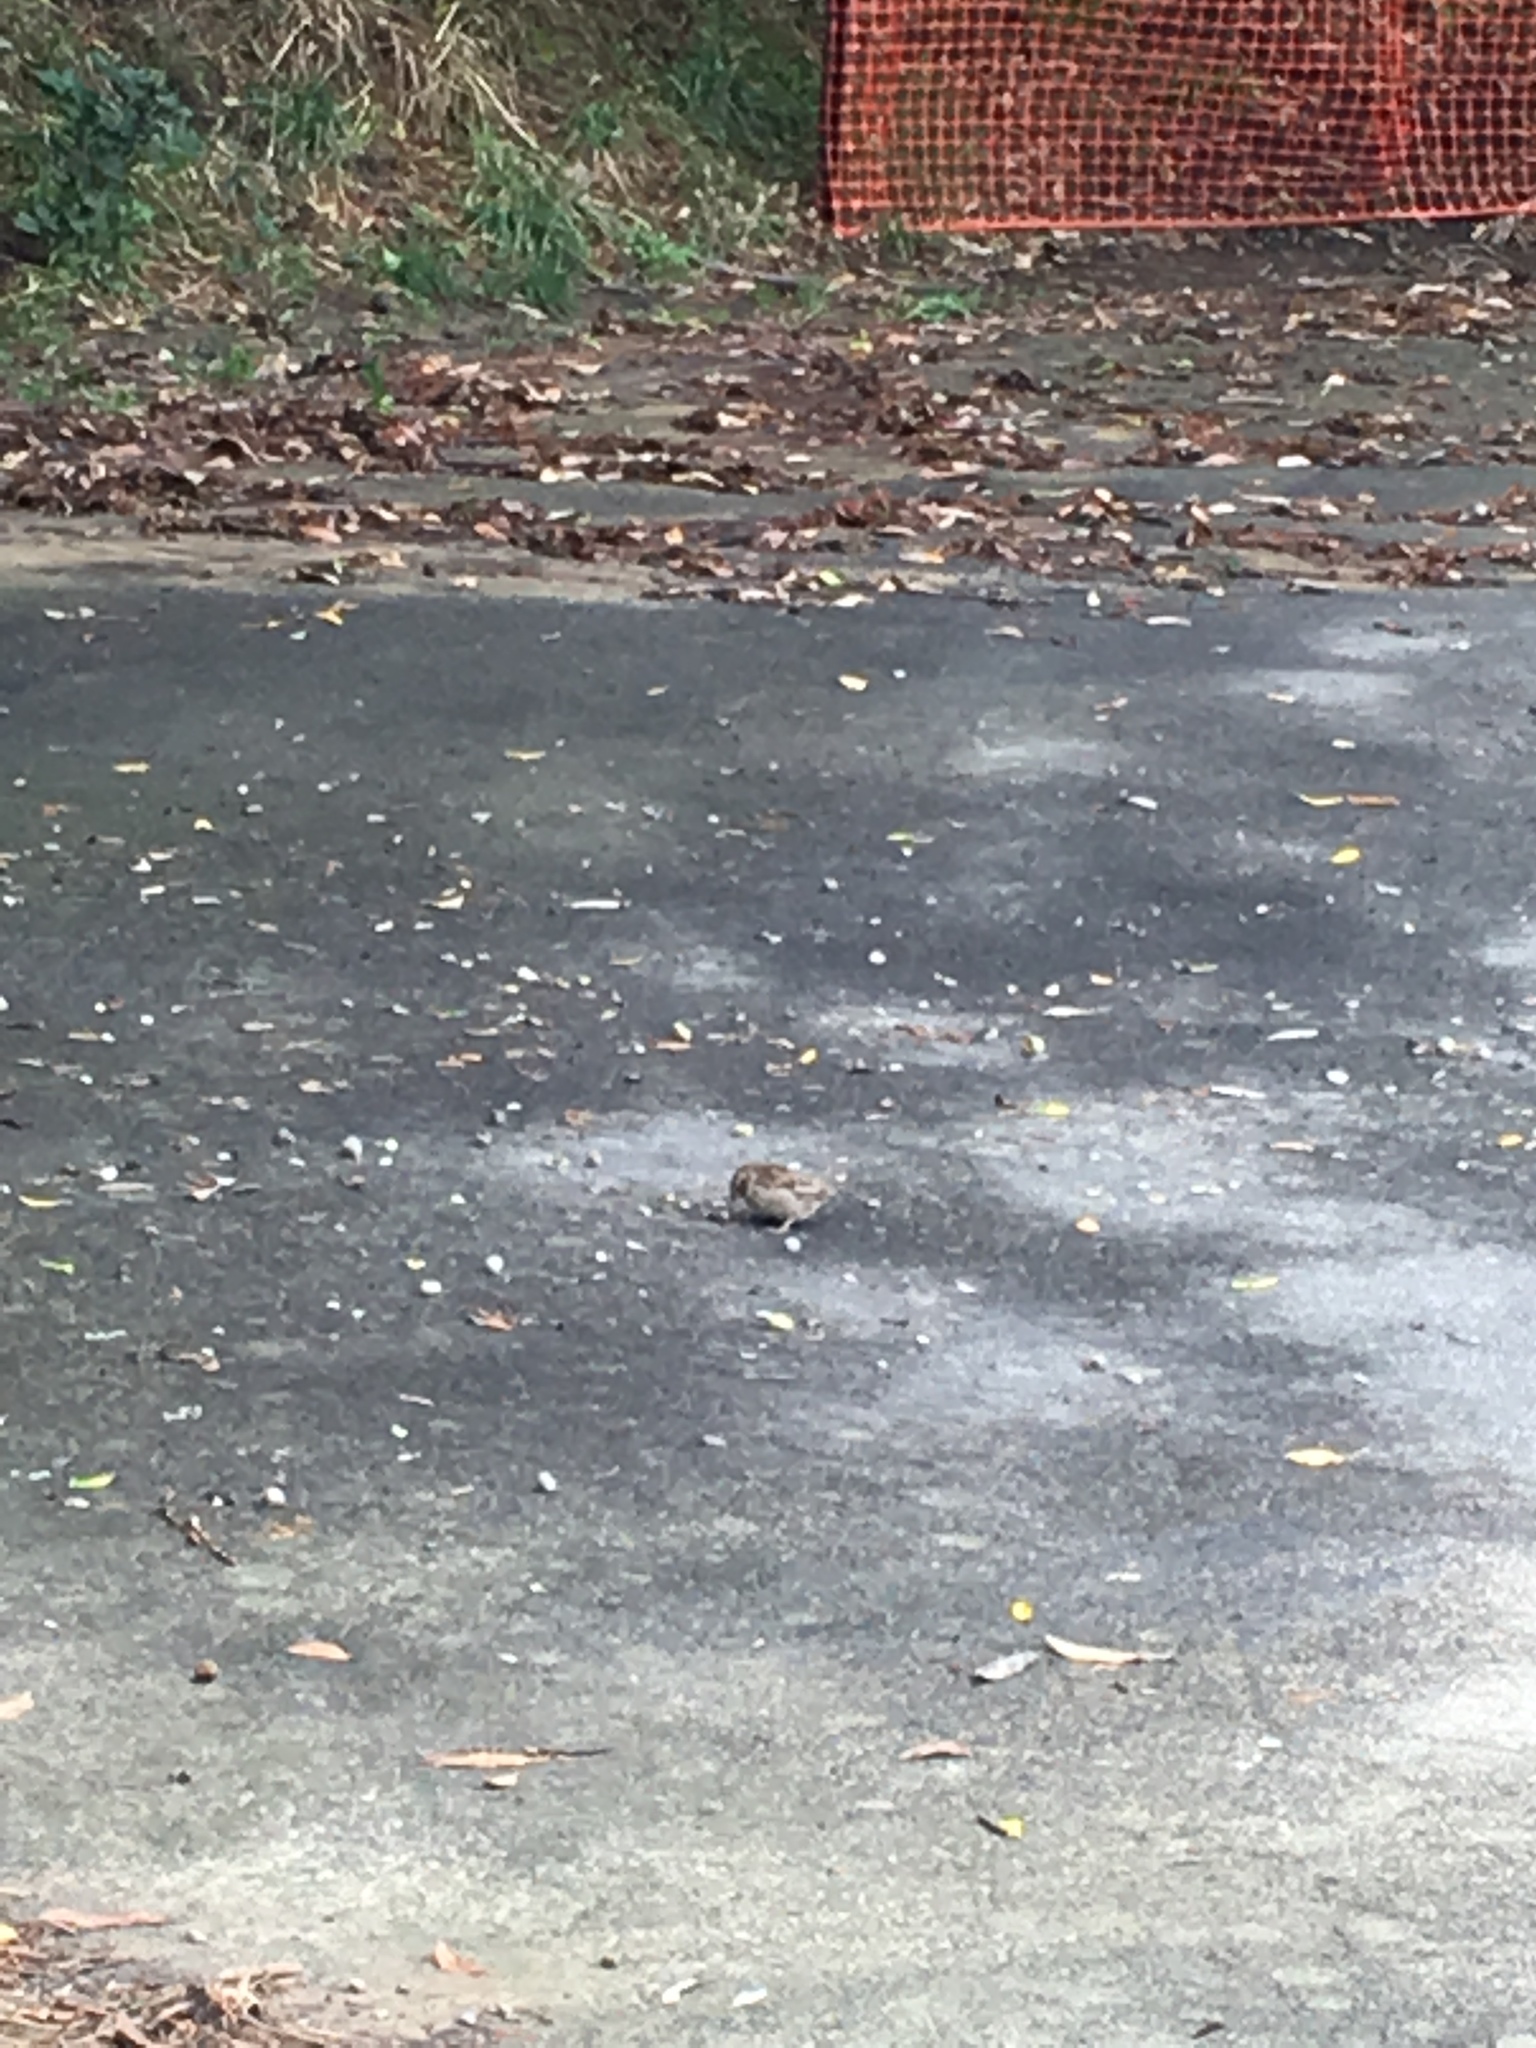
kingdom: Animalia
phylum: Chordata
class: Aves
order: Passeriformes
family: Passeridae
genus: Passer
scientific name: Passer domesticus
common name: House sparrow
